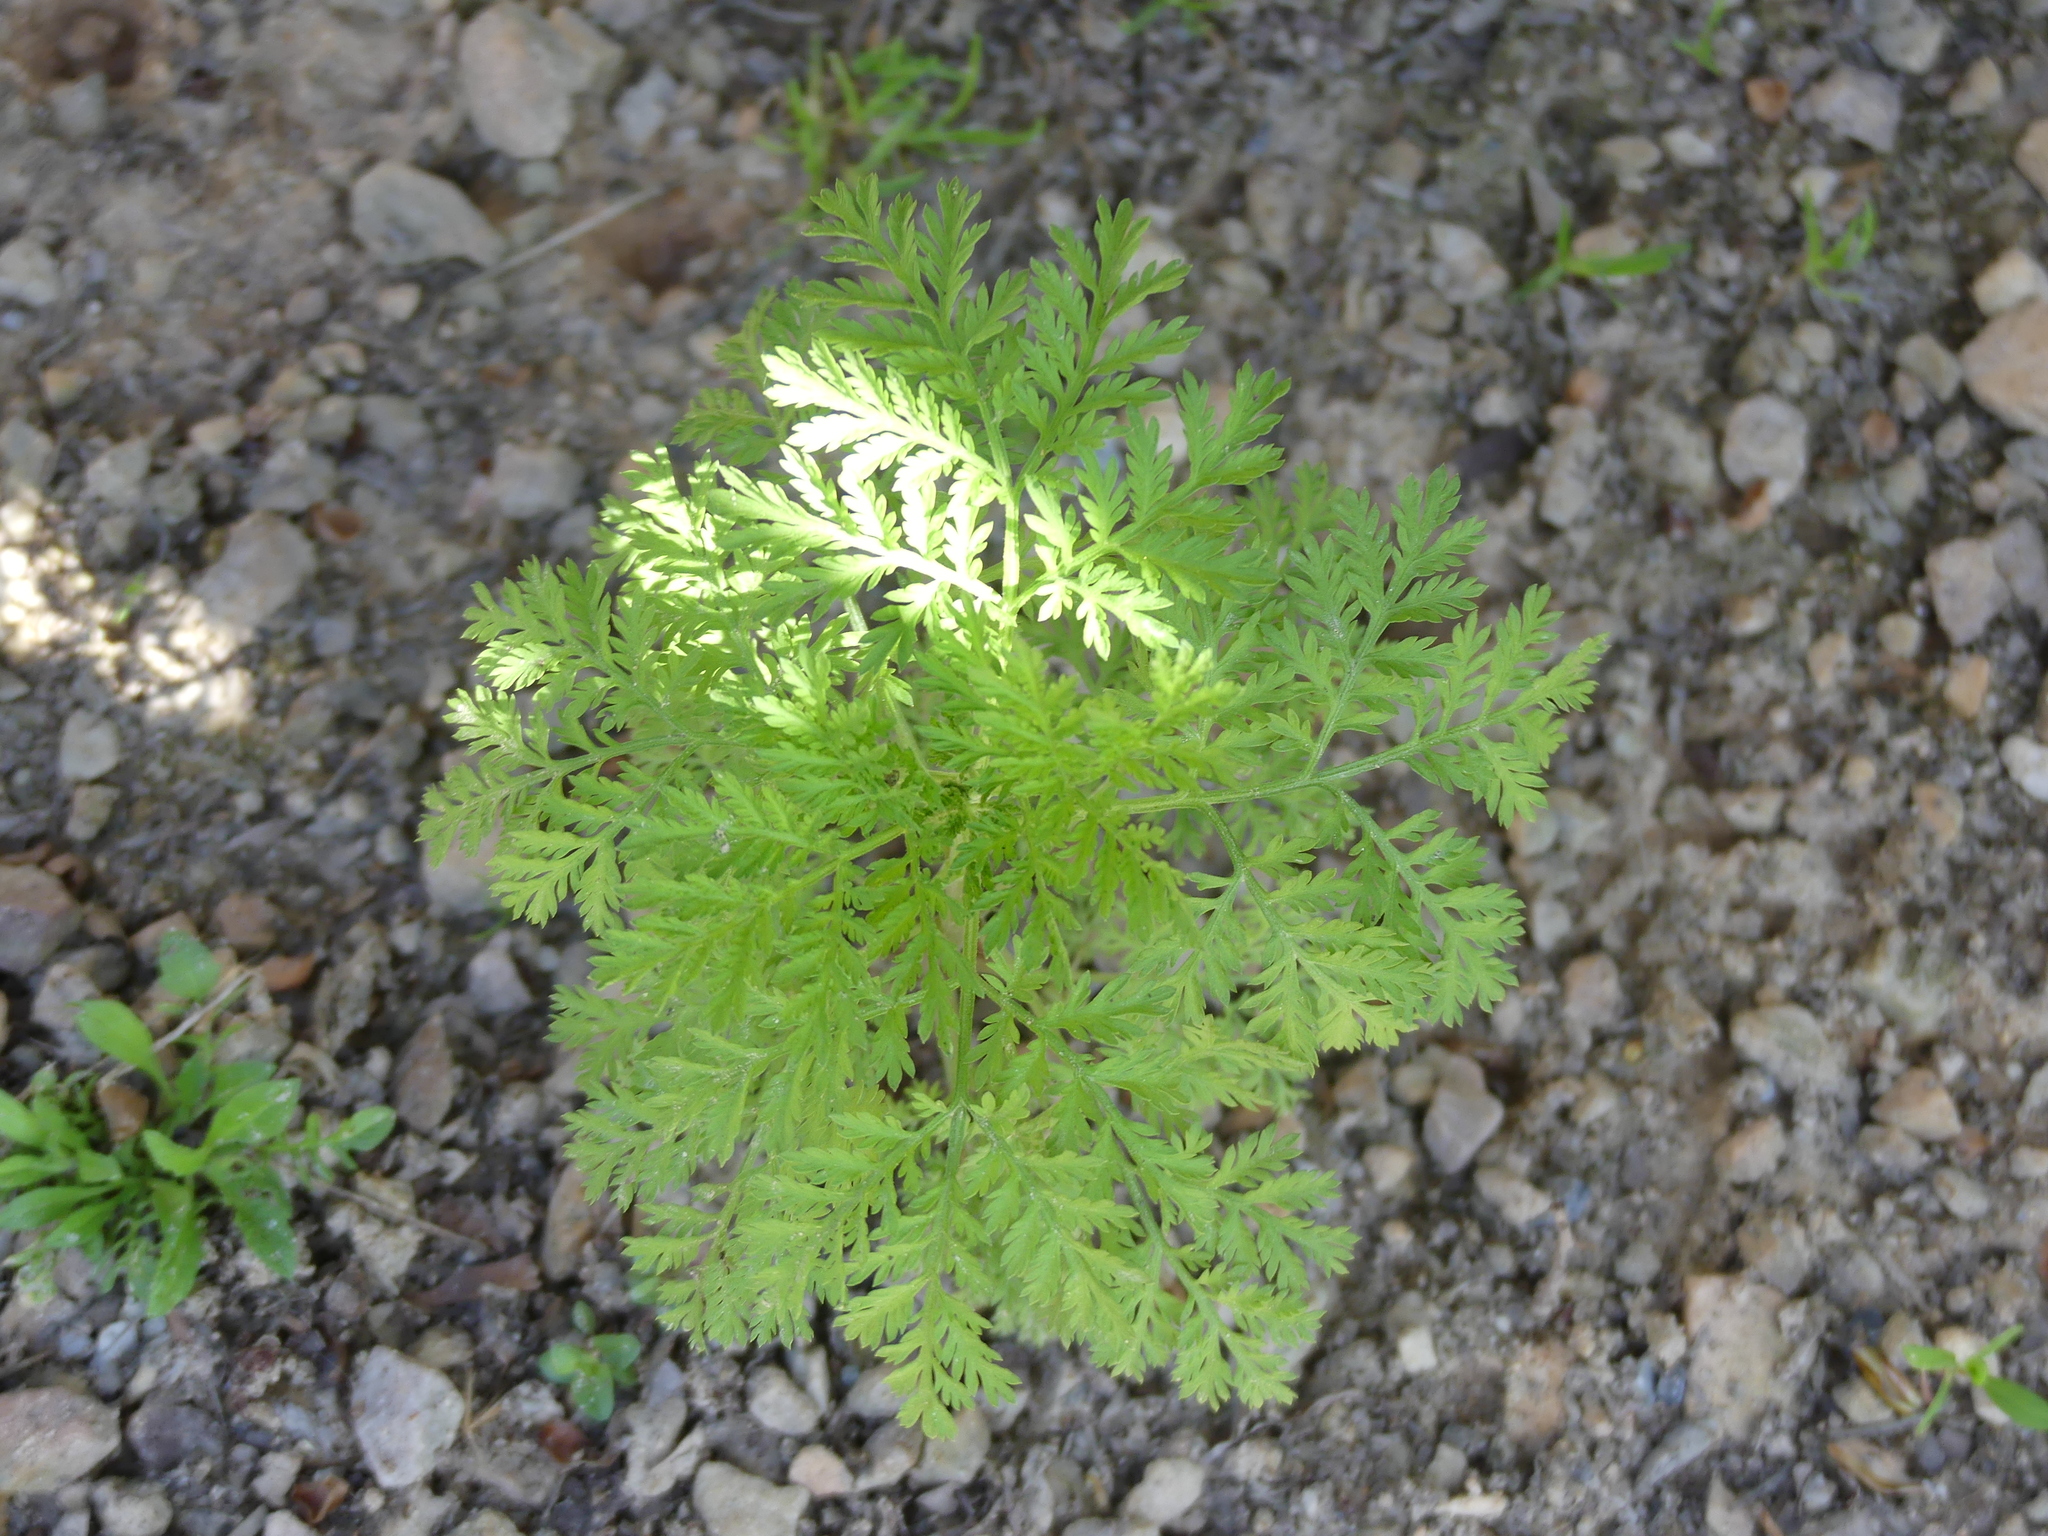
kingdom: Plantae
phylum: Tracheophyta
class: Magnoliopsida
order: Asterales
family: Asteraceae
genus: Artemisia
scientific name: Artemisia annua
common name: Sweet sagewort
